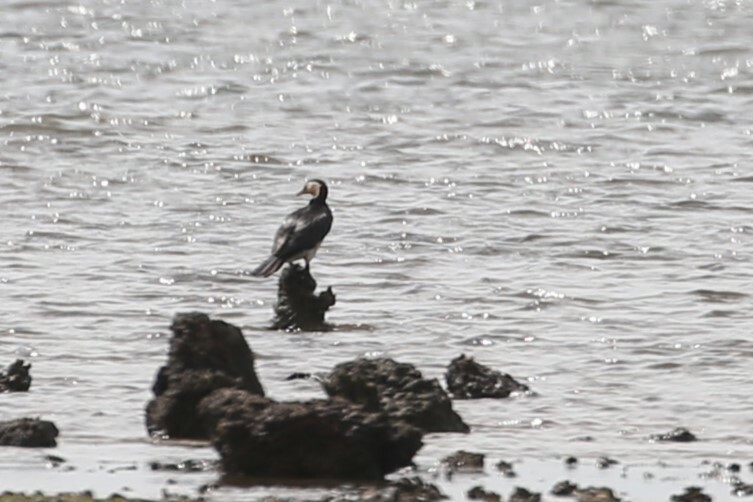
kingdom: Animalia
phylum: Chordata
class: Aves
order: Suliformes
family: Phalacrocoracidae
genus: Microcarbo
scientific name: Microcarbo melanoleucos
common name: Little pied cormorant
